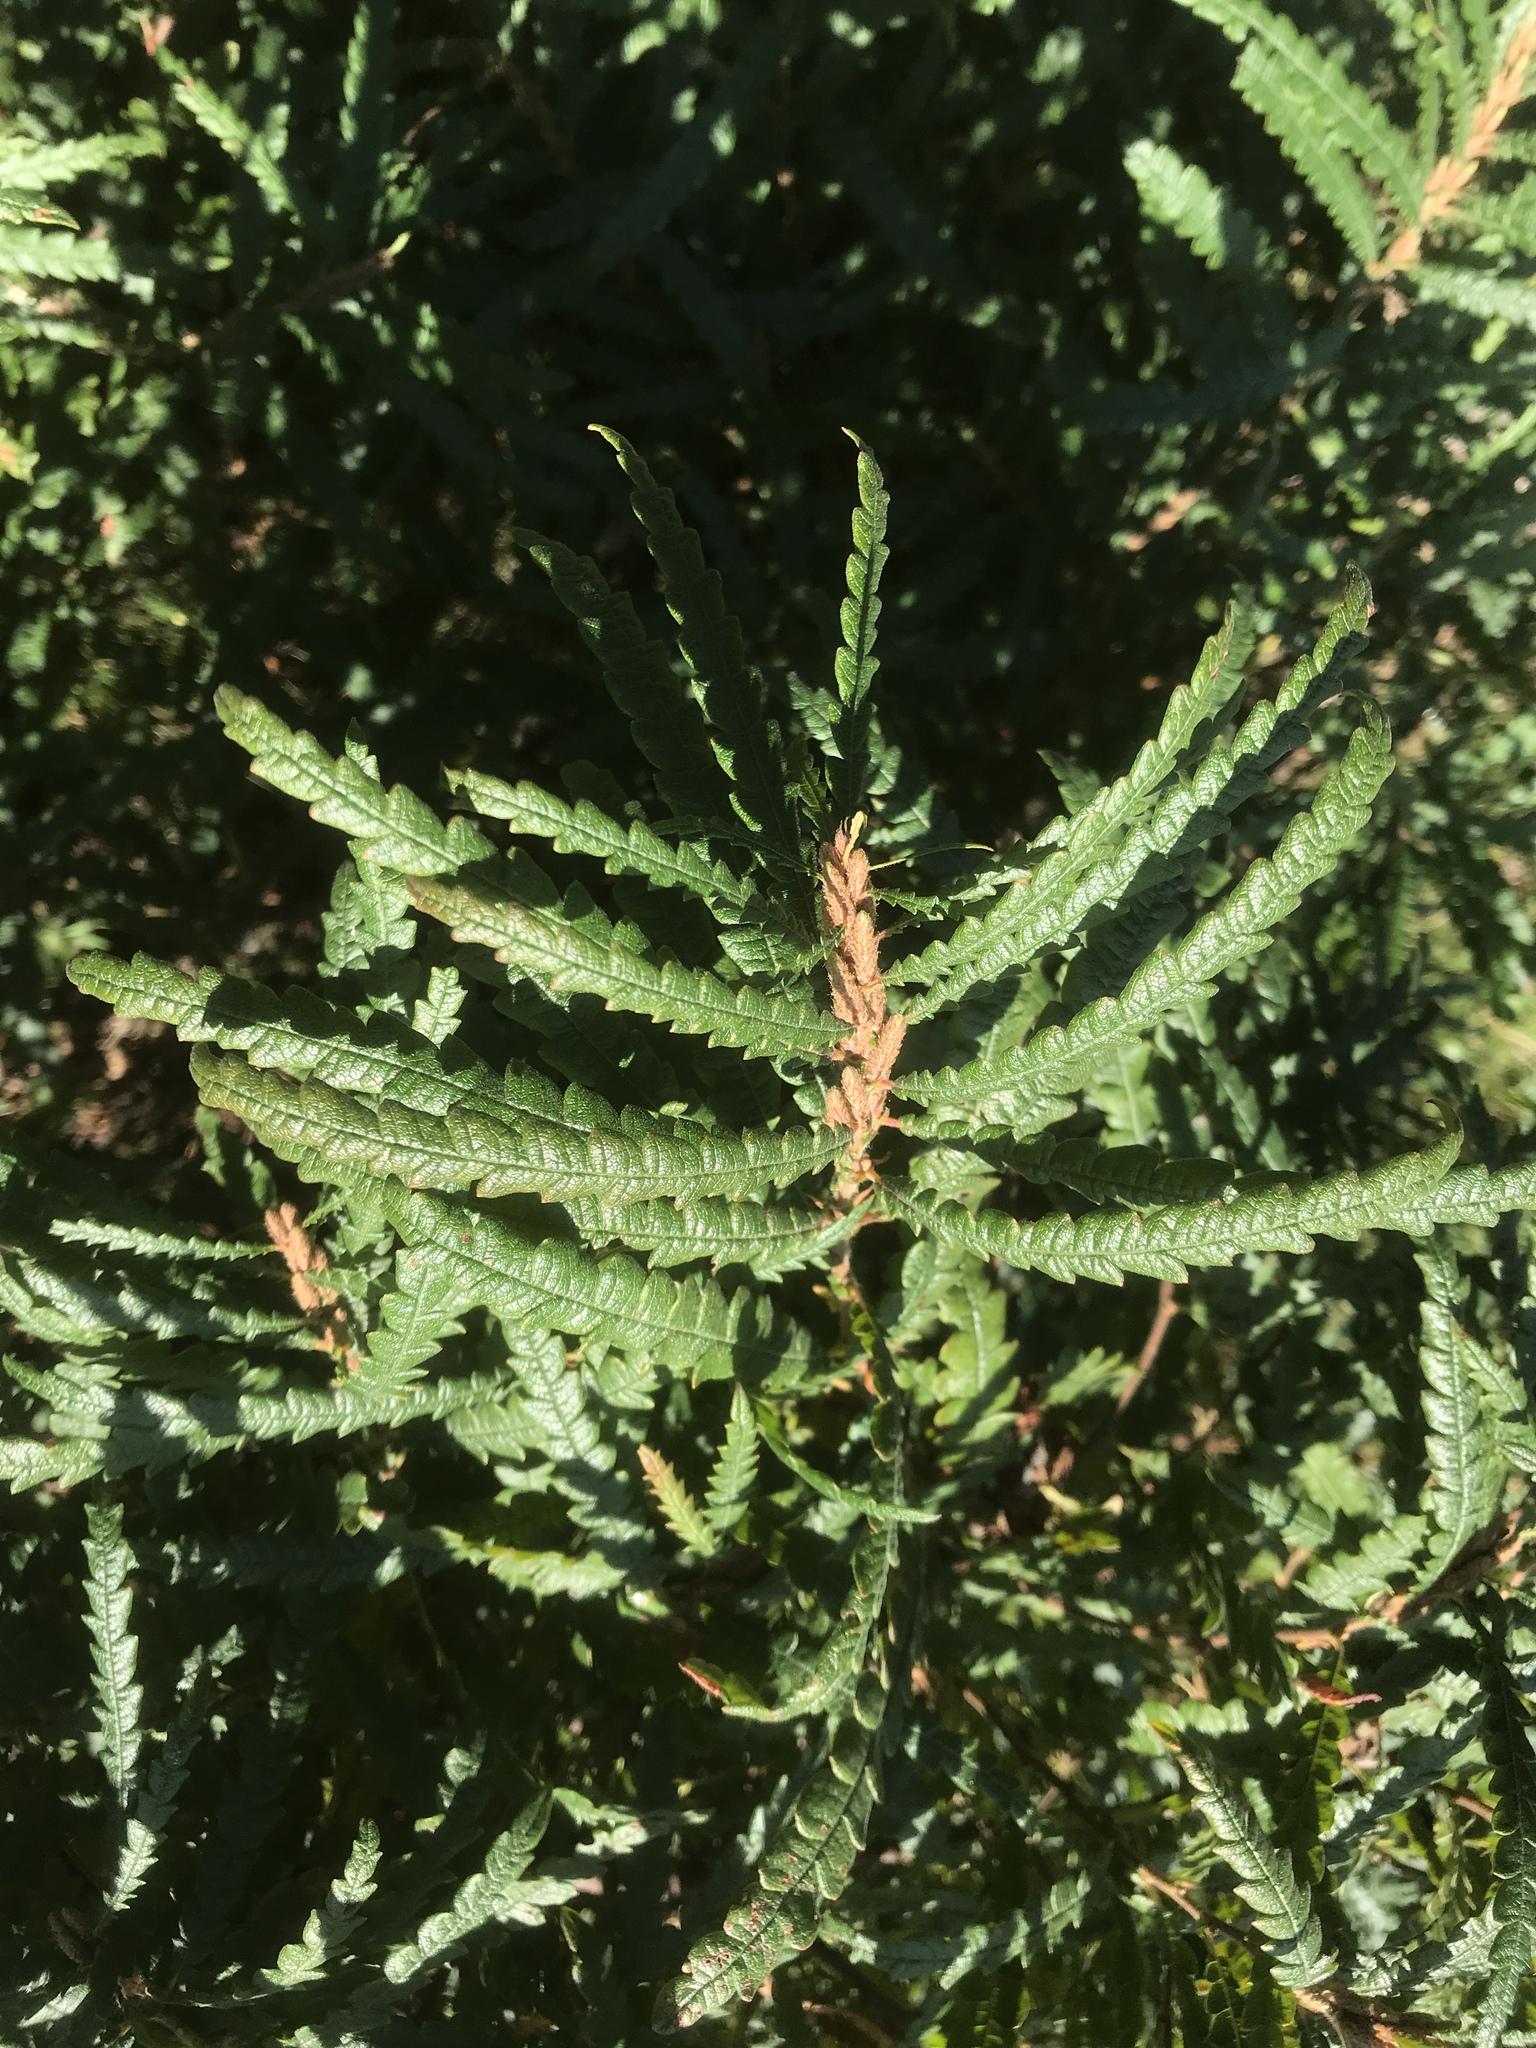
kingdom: Plantae
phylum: Tracheophyta
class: Magnoliopsida
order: Fagales
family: Myricaceae
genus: Comptonia
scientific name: Comptonia peregrina
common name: Sweet-fern
